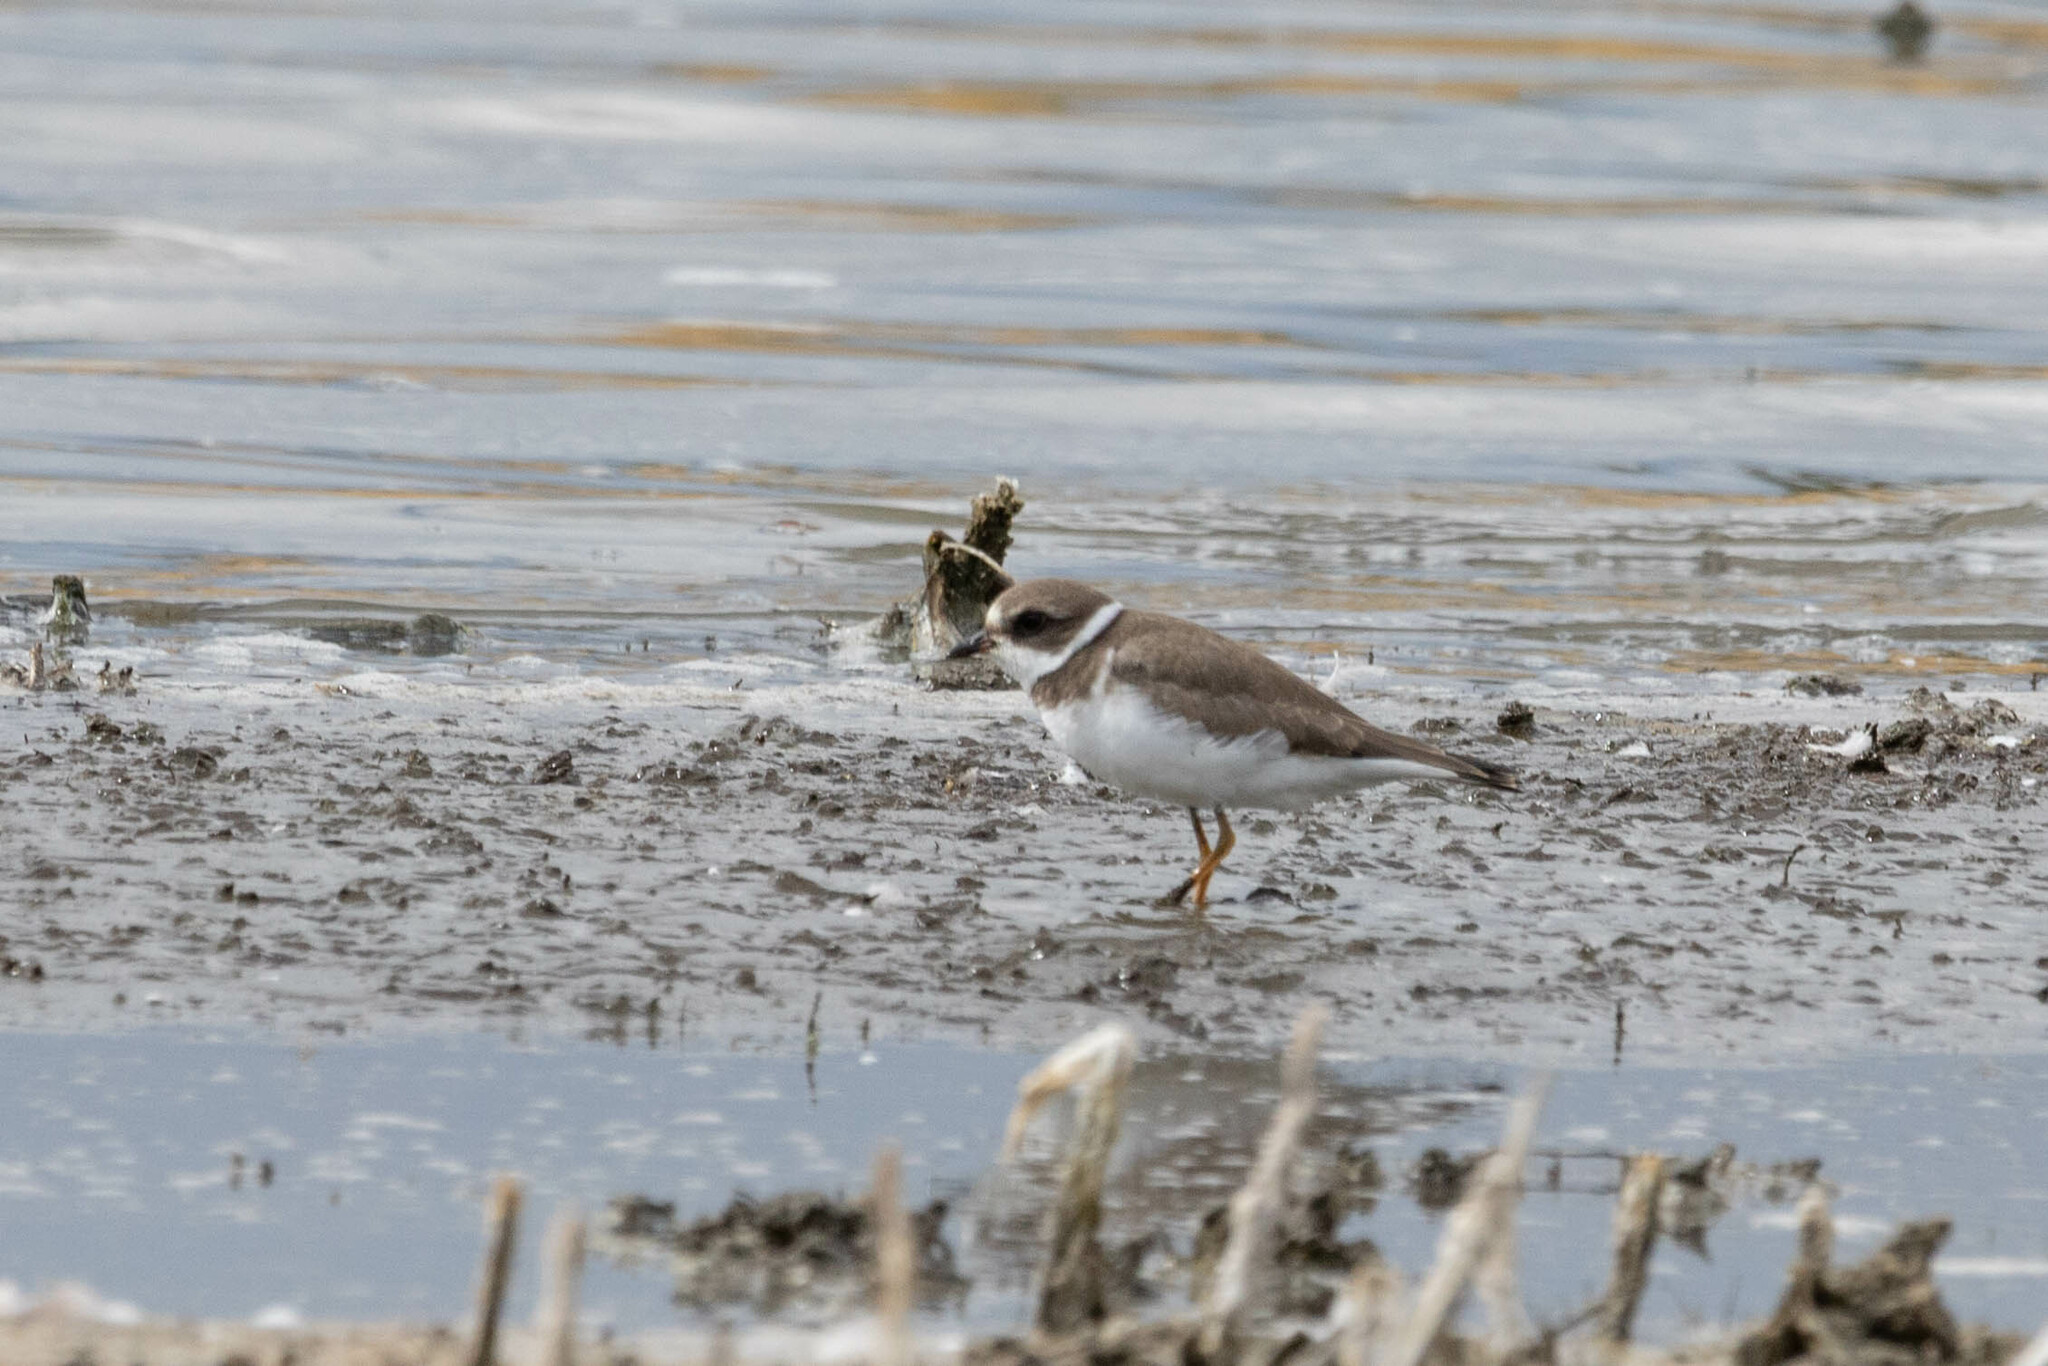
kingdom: Animalia
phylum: Chordata
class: Aves
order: Charadriiformes
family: Charadriidae
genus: Charadrius
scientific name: Charadrius semipalmatus
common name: Semipalmated plover
